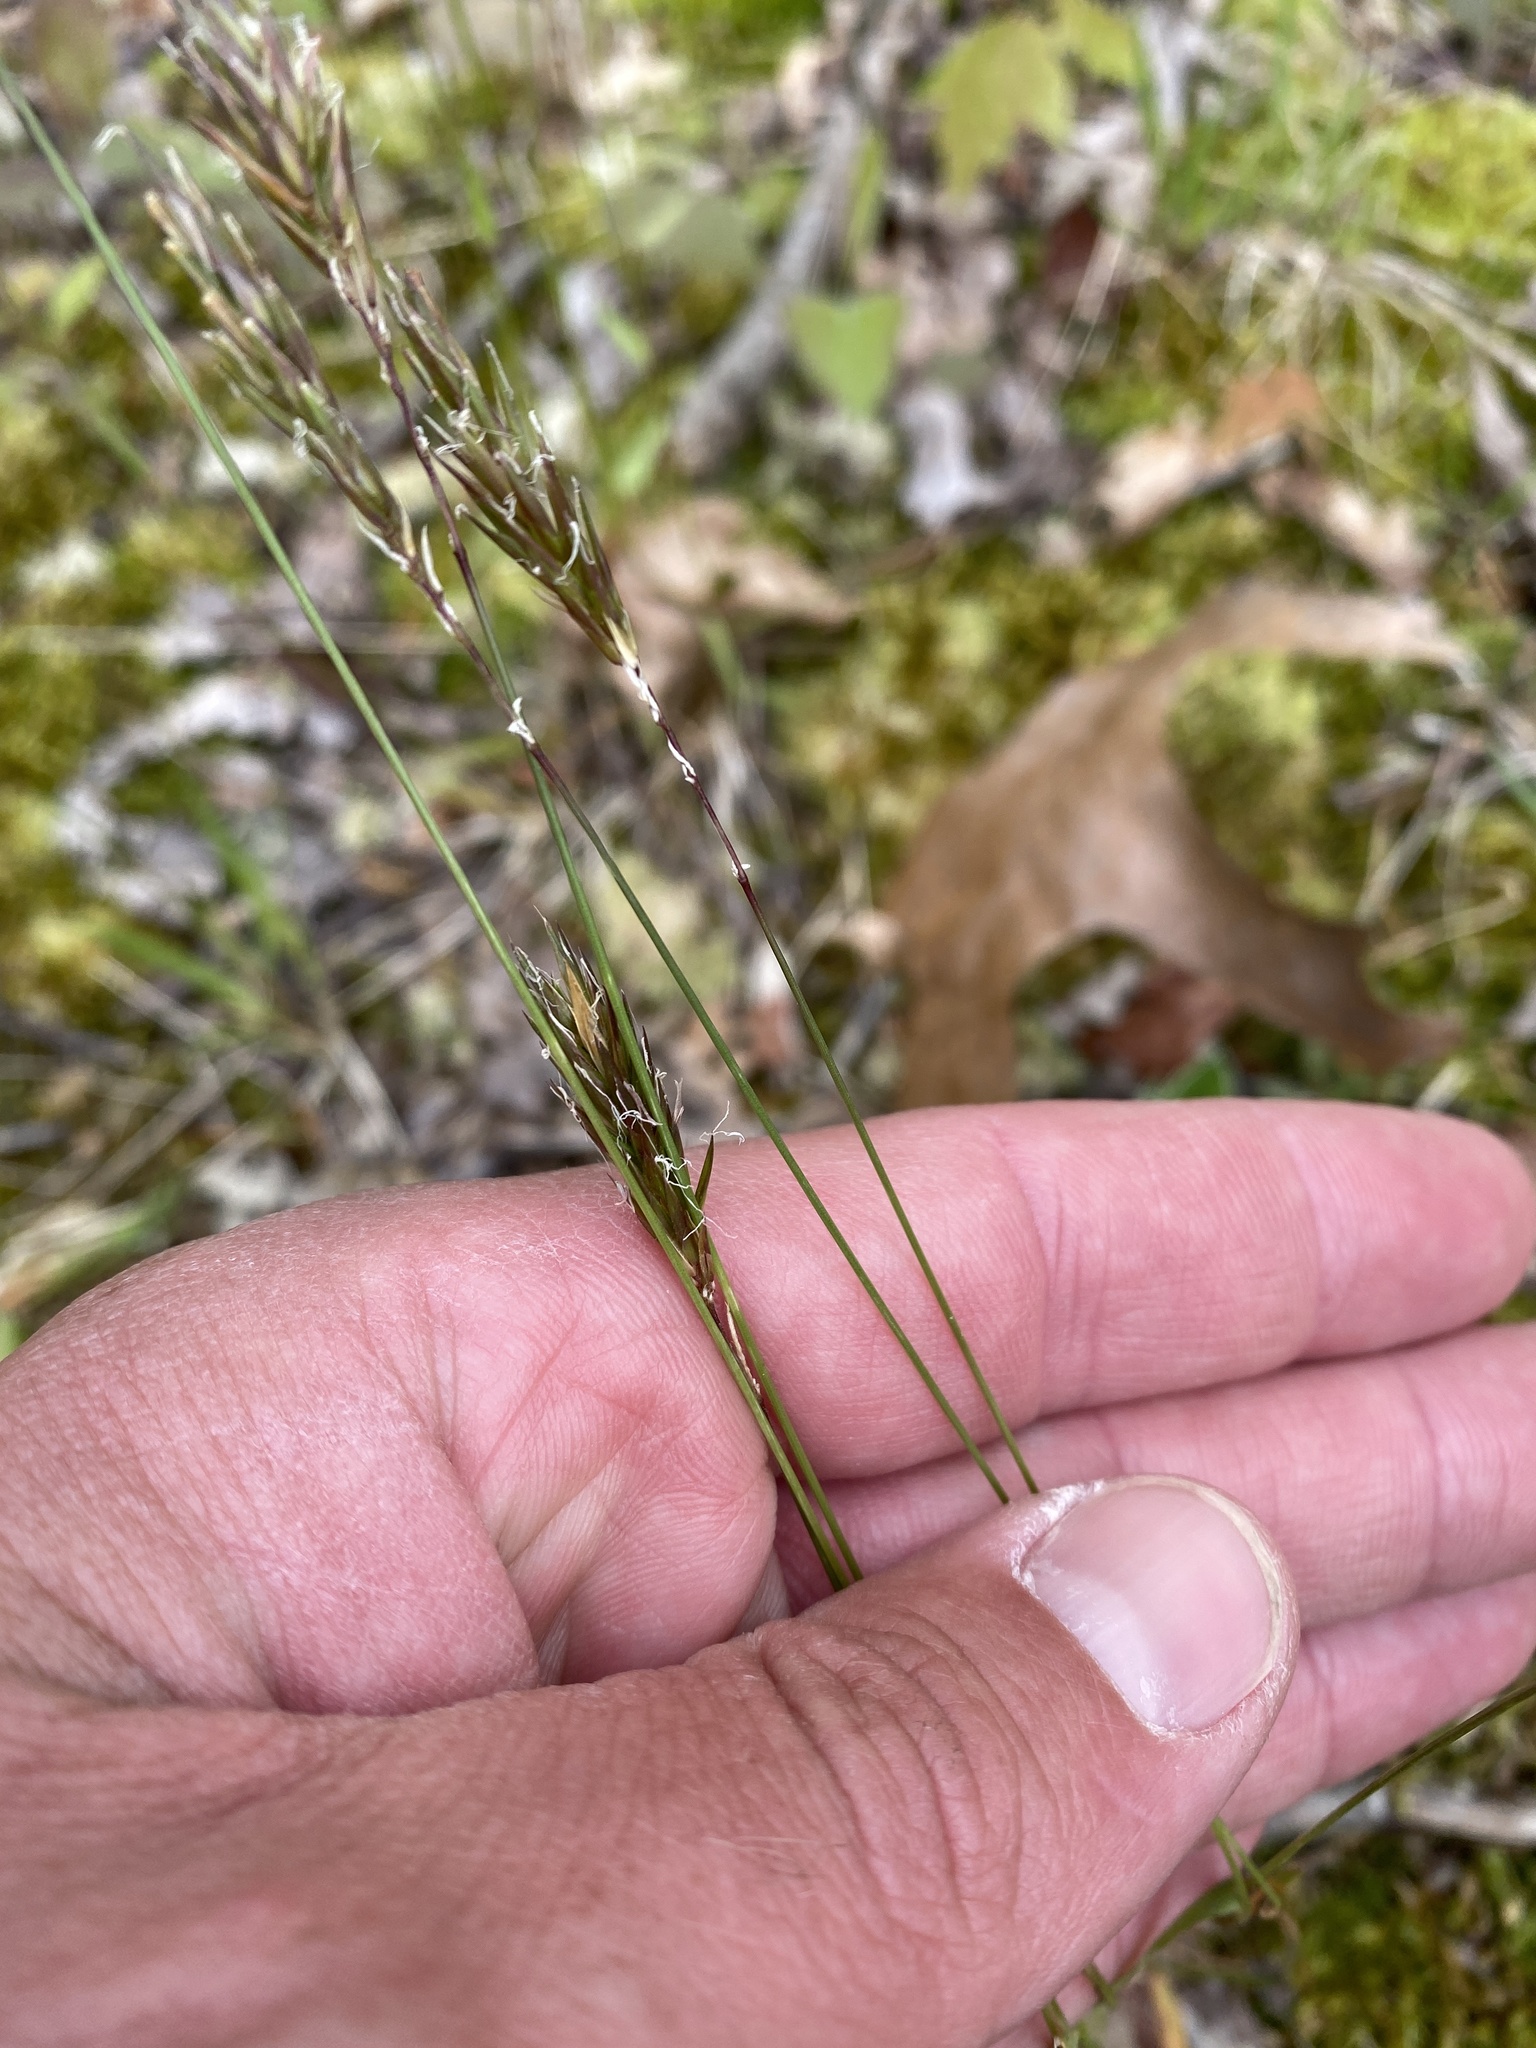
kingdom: Plantae
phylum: Tracheophyta
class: Liliopsida
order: Poales
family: Poaceae
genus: Anthoxanthum
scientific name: Anthoxanthum odoratum
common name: Sweet vernalgrass
